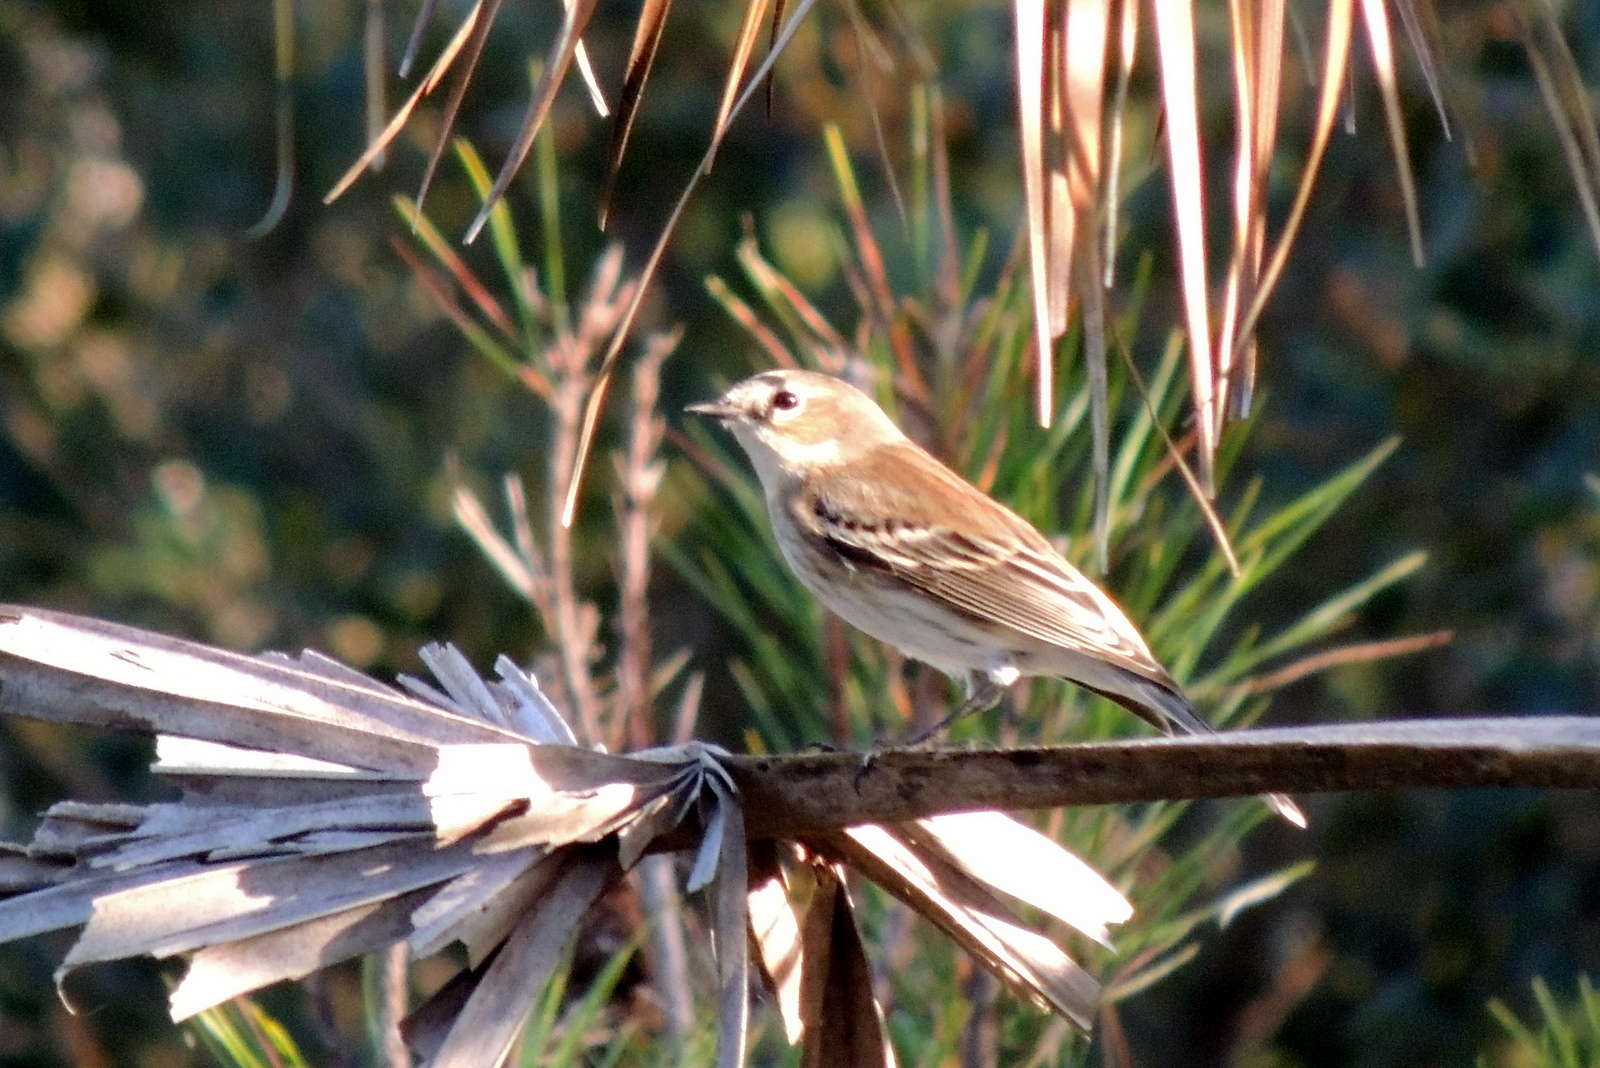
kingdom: Animalia
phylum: Chordata
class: Aves
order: Passeriformes
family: Parulidae
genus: Setophaga
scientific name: Setophaga coronata
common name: Myrtle warbler
